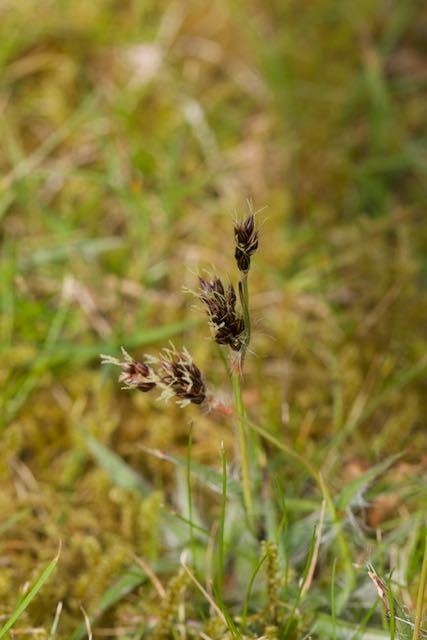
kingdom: Plantae
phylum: Tracheophyta
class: Liliopsida
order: Poales
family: Juncaceae
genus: Luzula
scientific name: Luzula campestris
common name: Field wood-rush
